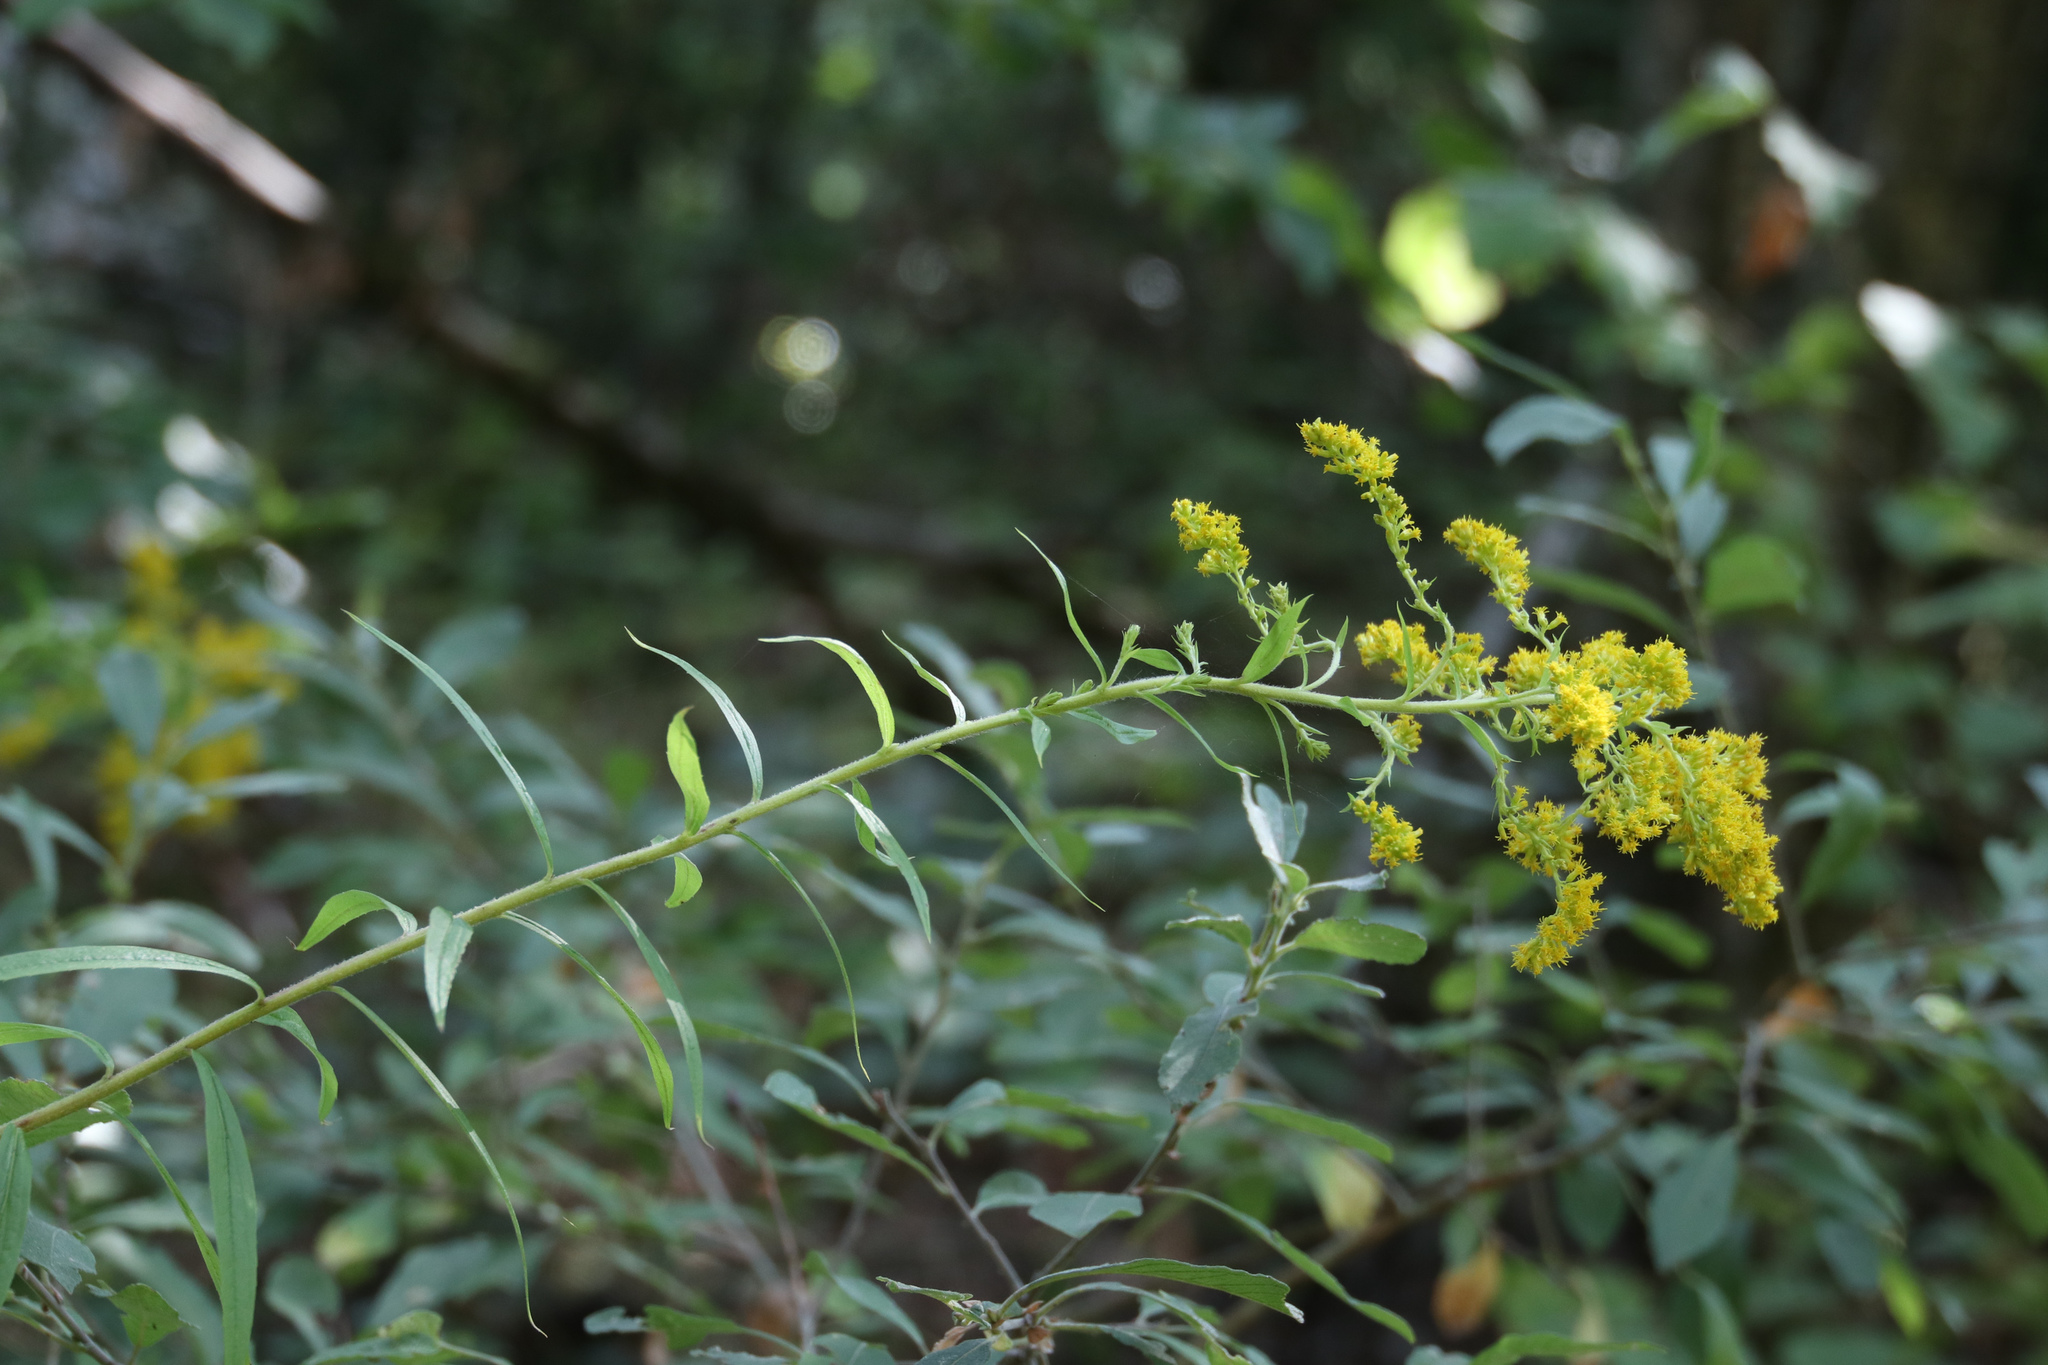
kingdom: Plantae
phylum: Tracheophyta
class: Magnoliopsida
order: Asterales
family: Asteraceae
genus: Solidago
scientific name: Solidago canadensis
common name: Canada goldenrod
